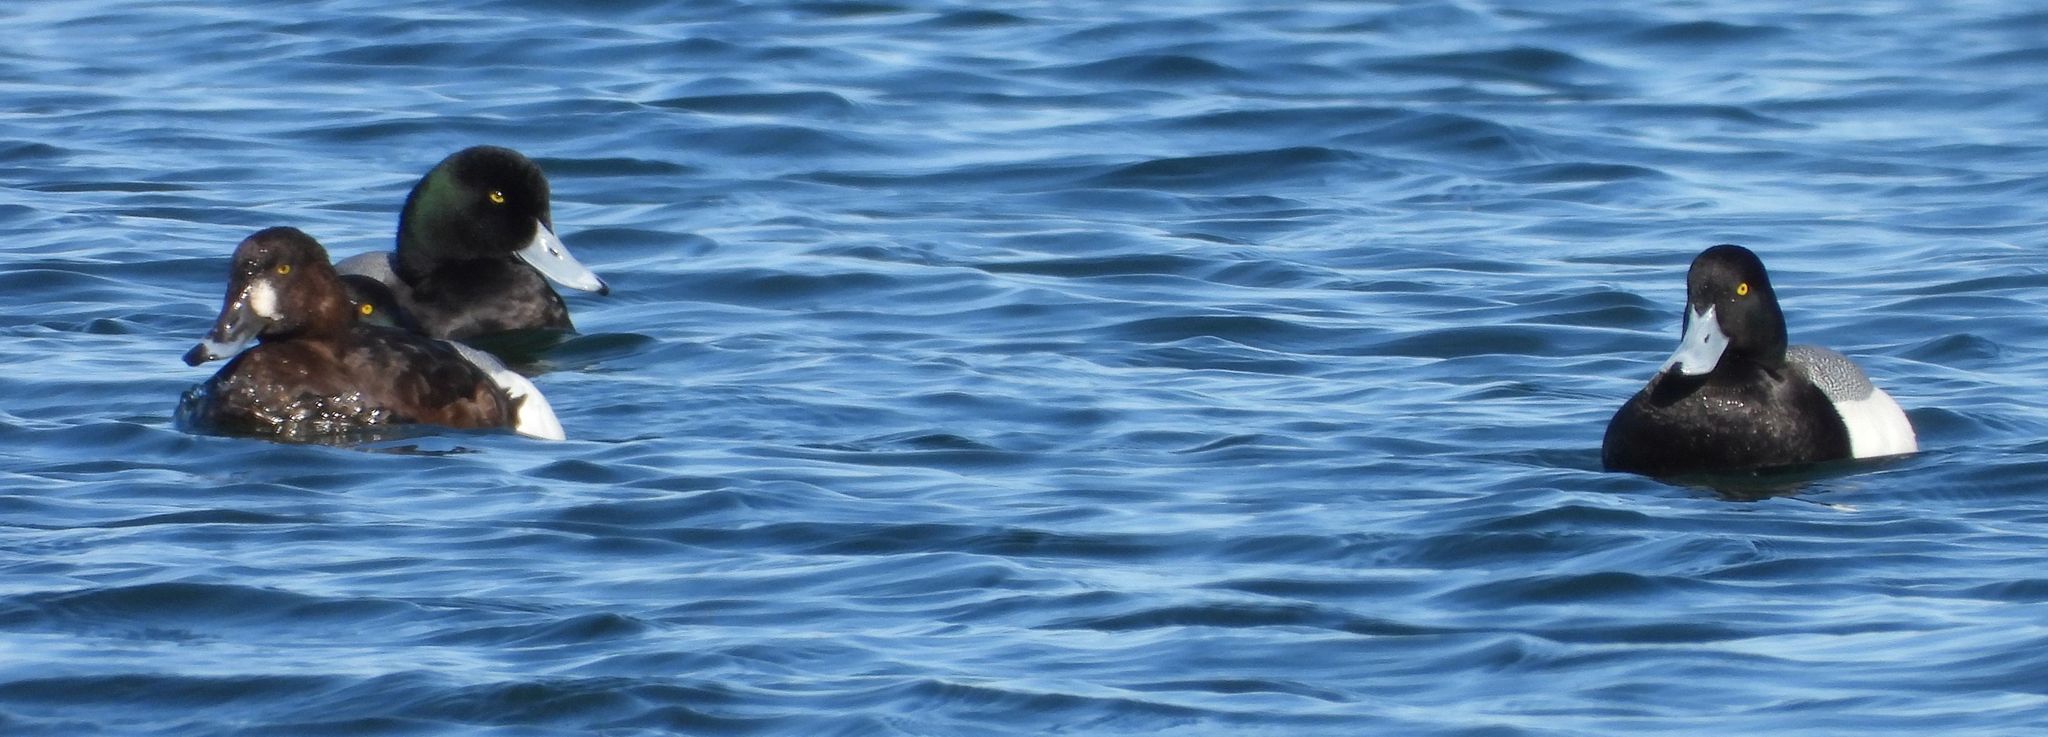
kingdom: Animalia
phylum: Chordata
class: Aves
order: Anseriformes
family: Anatidae
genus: Aythya
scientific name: Aythya marila
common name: Greater scaup
